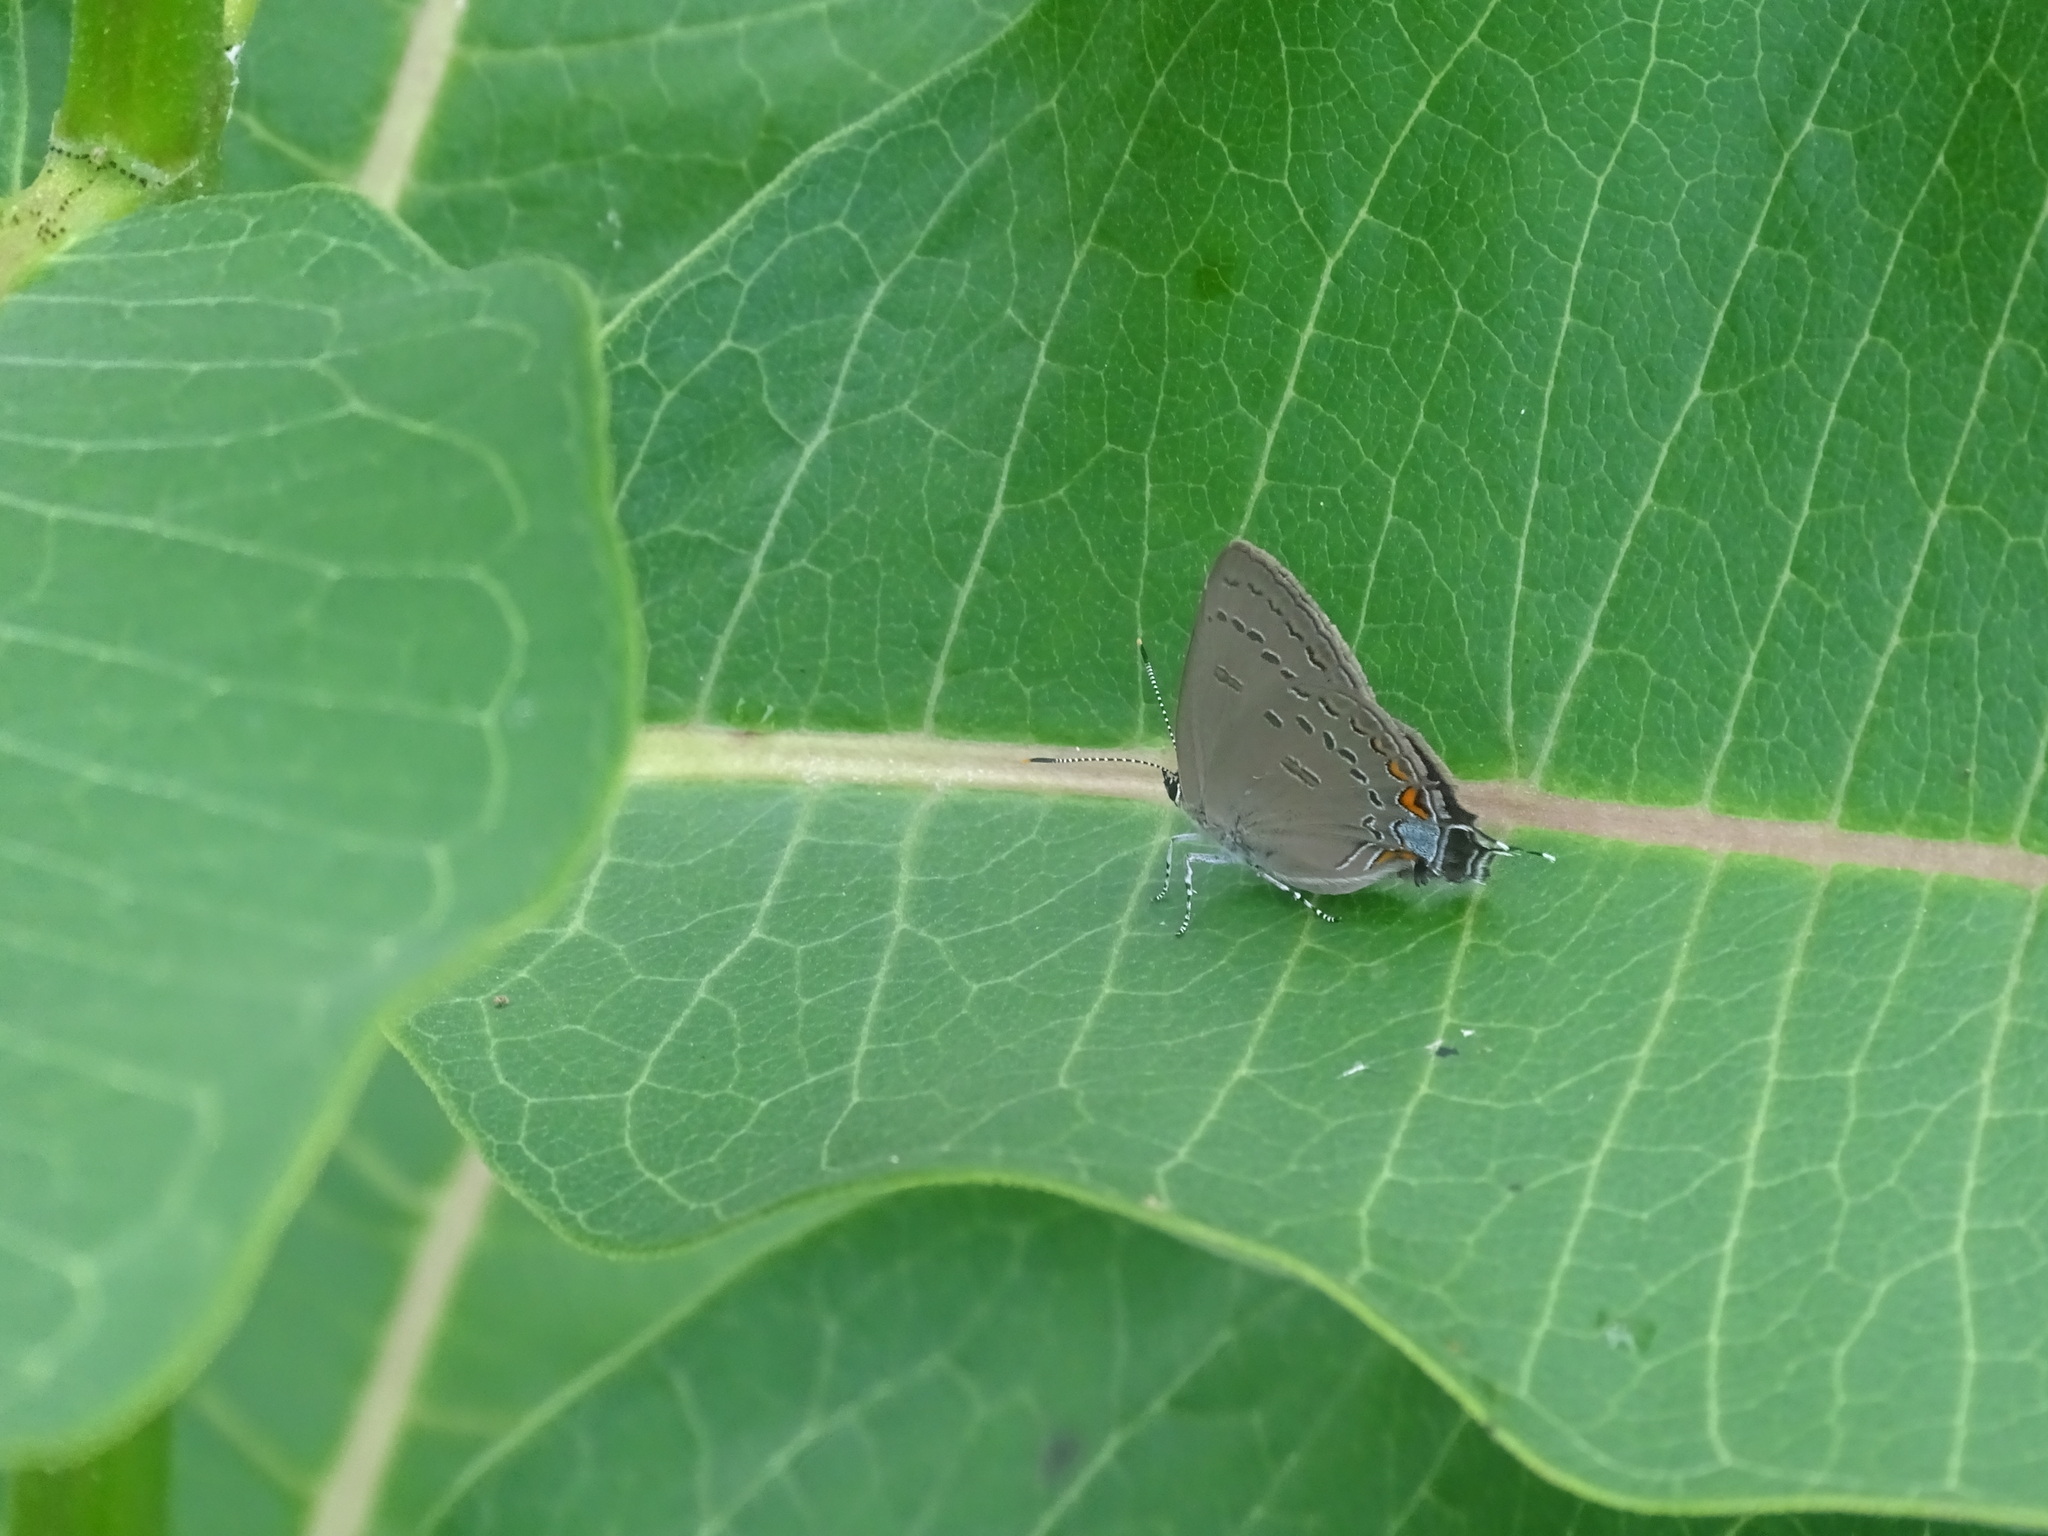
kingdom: Animalia
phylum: Arthropoda
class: Insecta
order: Lepidoptera
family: Lycaenidae
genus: Satyrium
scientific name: Satyrium edwardsii
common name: Edwards' hairstreak
